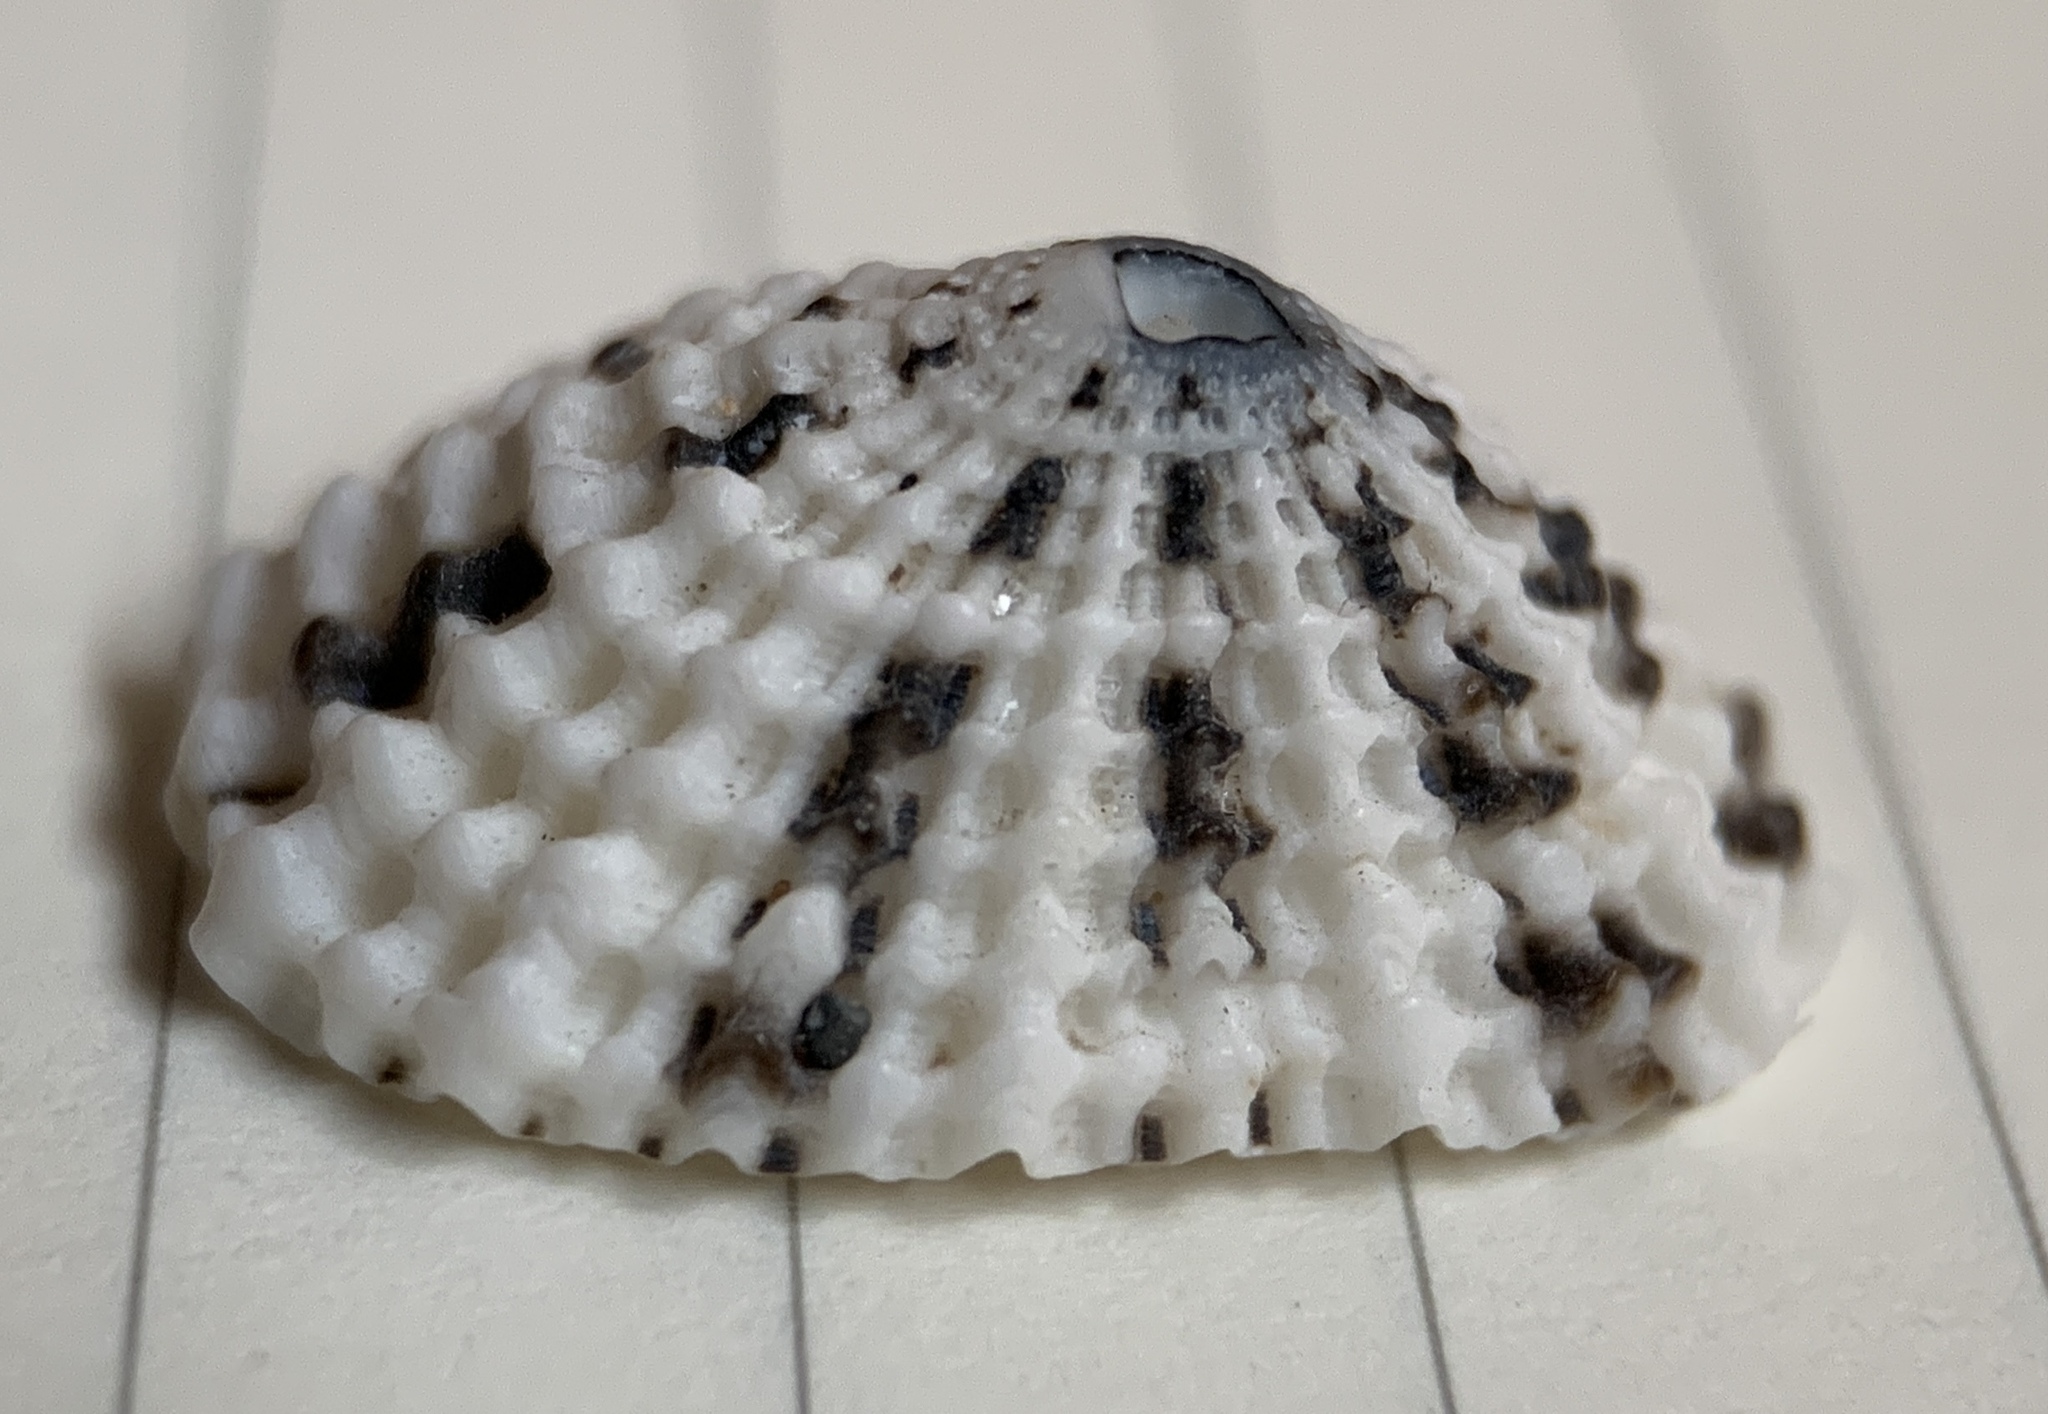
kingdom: Animalia
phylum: Mollusca
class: Gastropoda
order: Lepetellida
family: Fissurellidae
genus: Diodora
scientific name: Diodora listeri
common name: Lister's key-hole limpet
